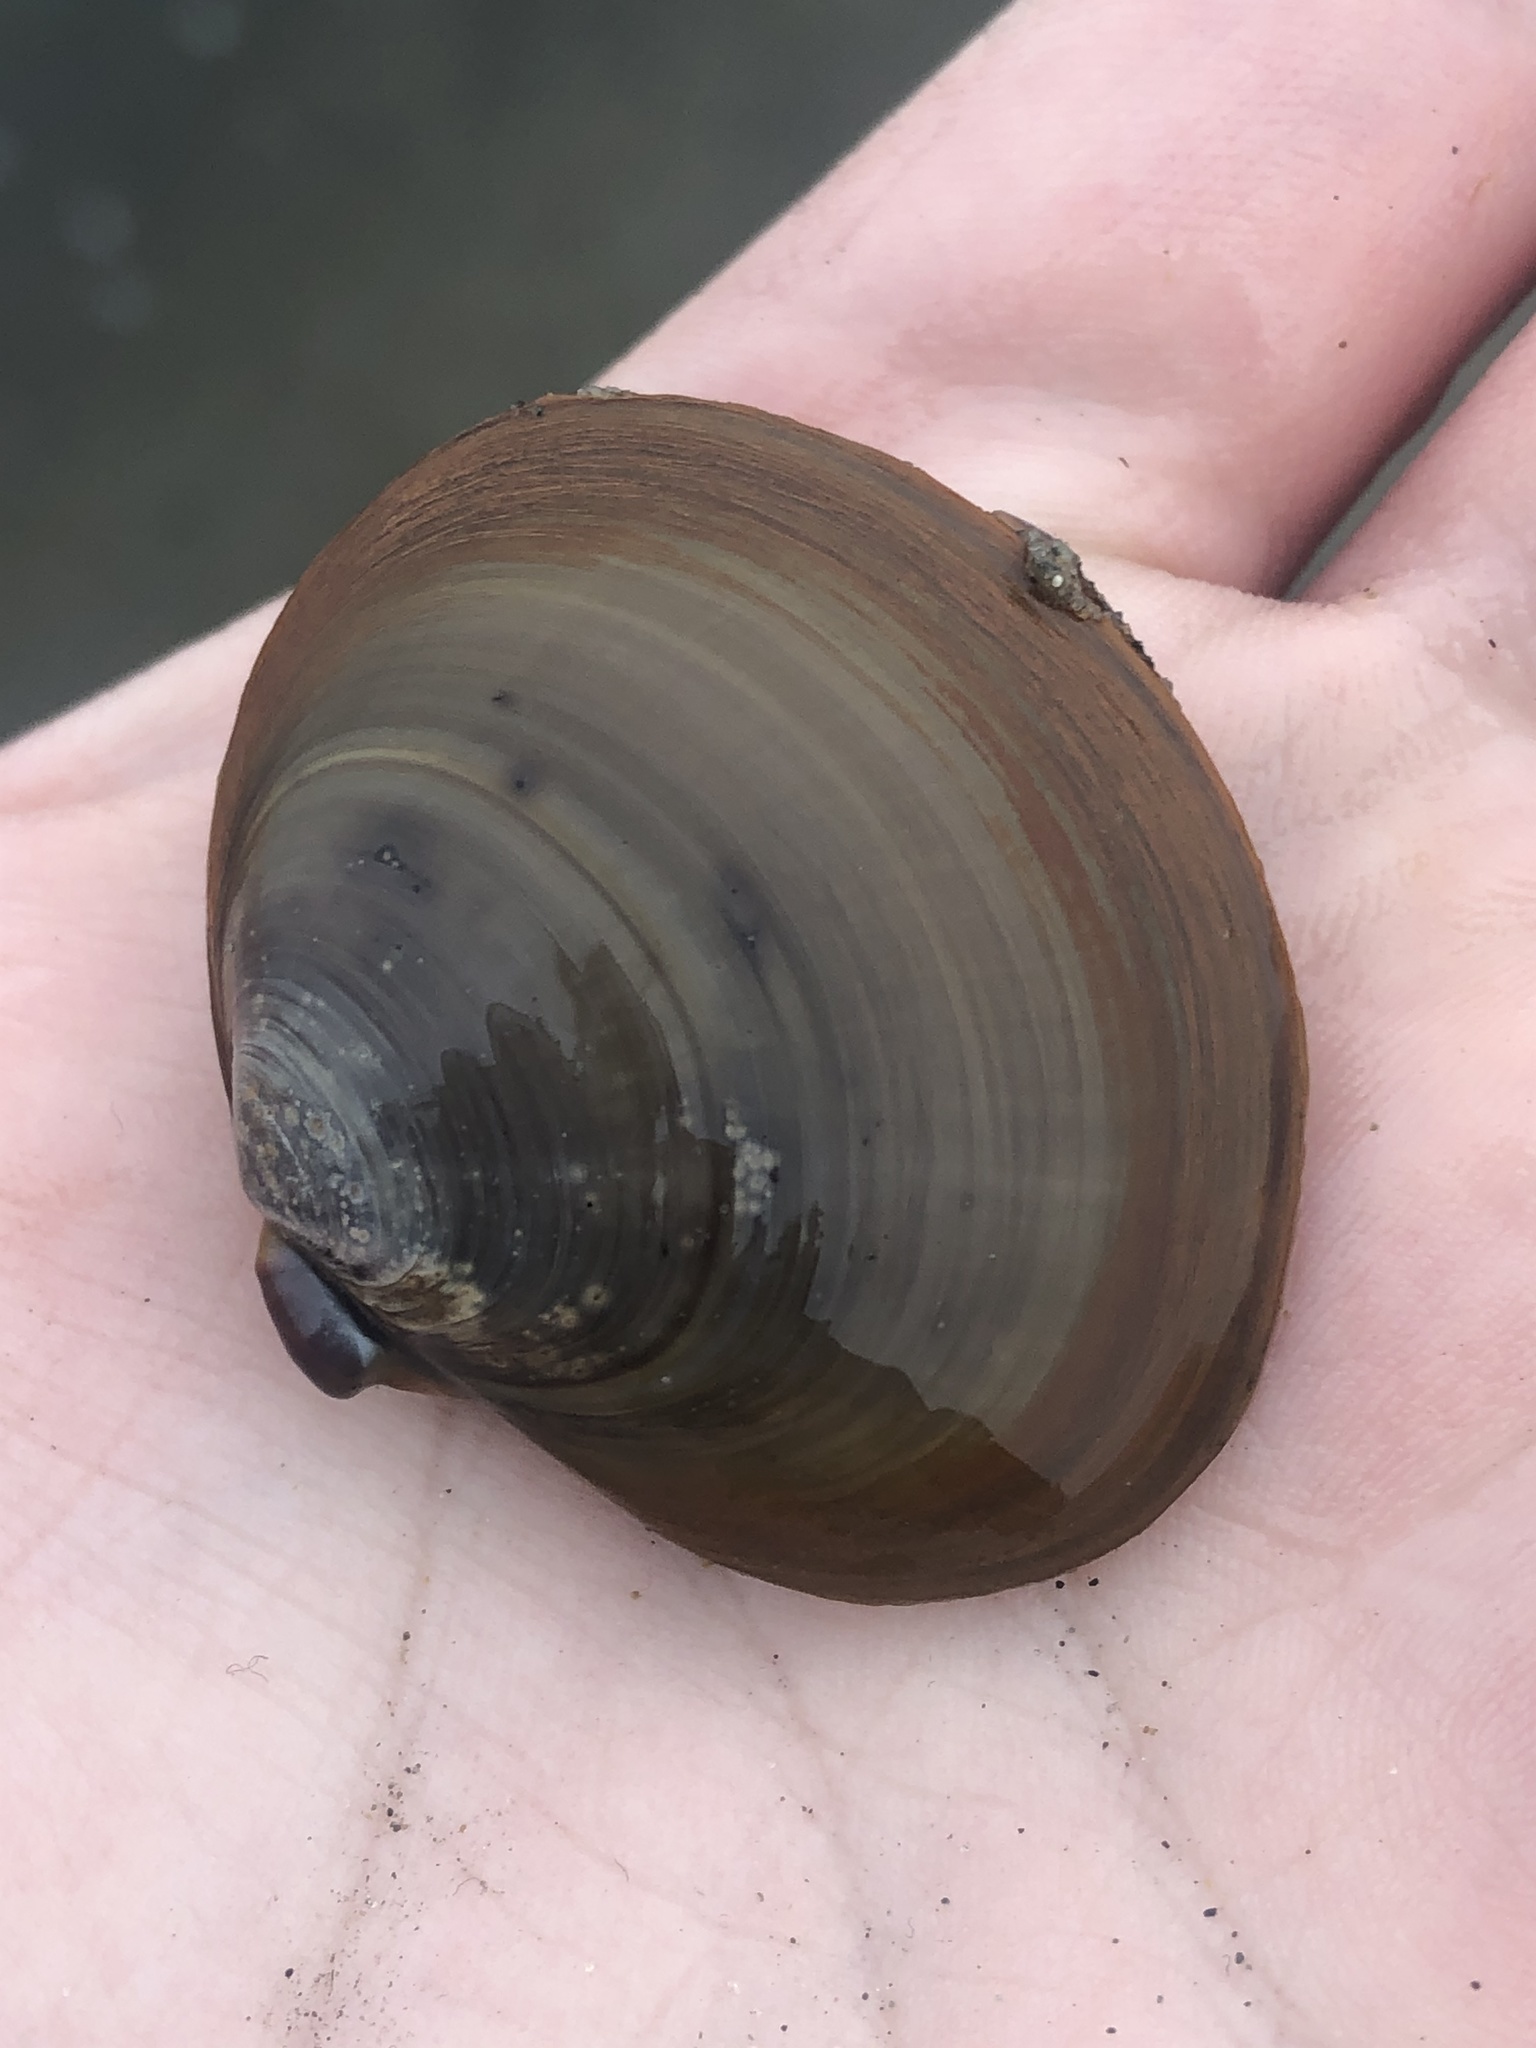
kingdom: Animalia
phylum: Mollusca
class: Bivalvia
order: Cardiida
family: Psammobiidae
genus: Nuttallia
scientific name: Nuttallia obscurata
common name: Purple mahogany-clam
